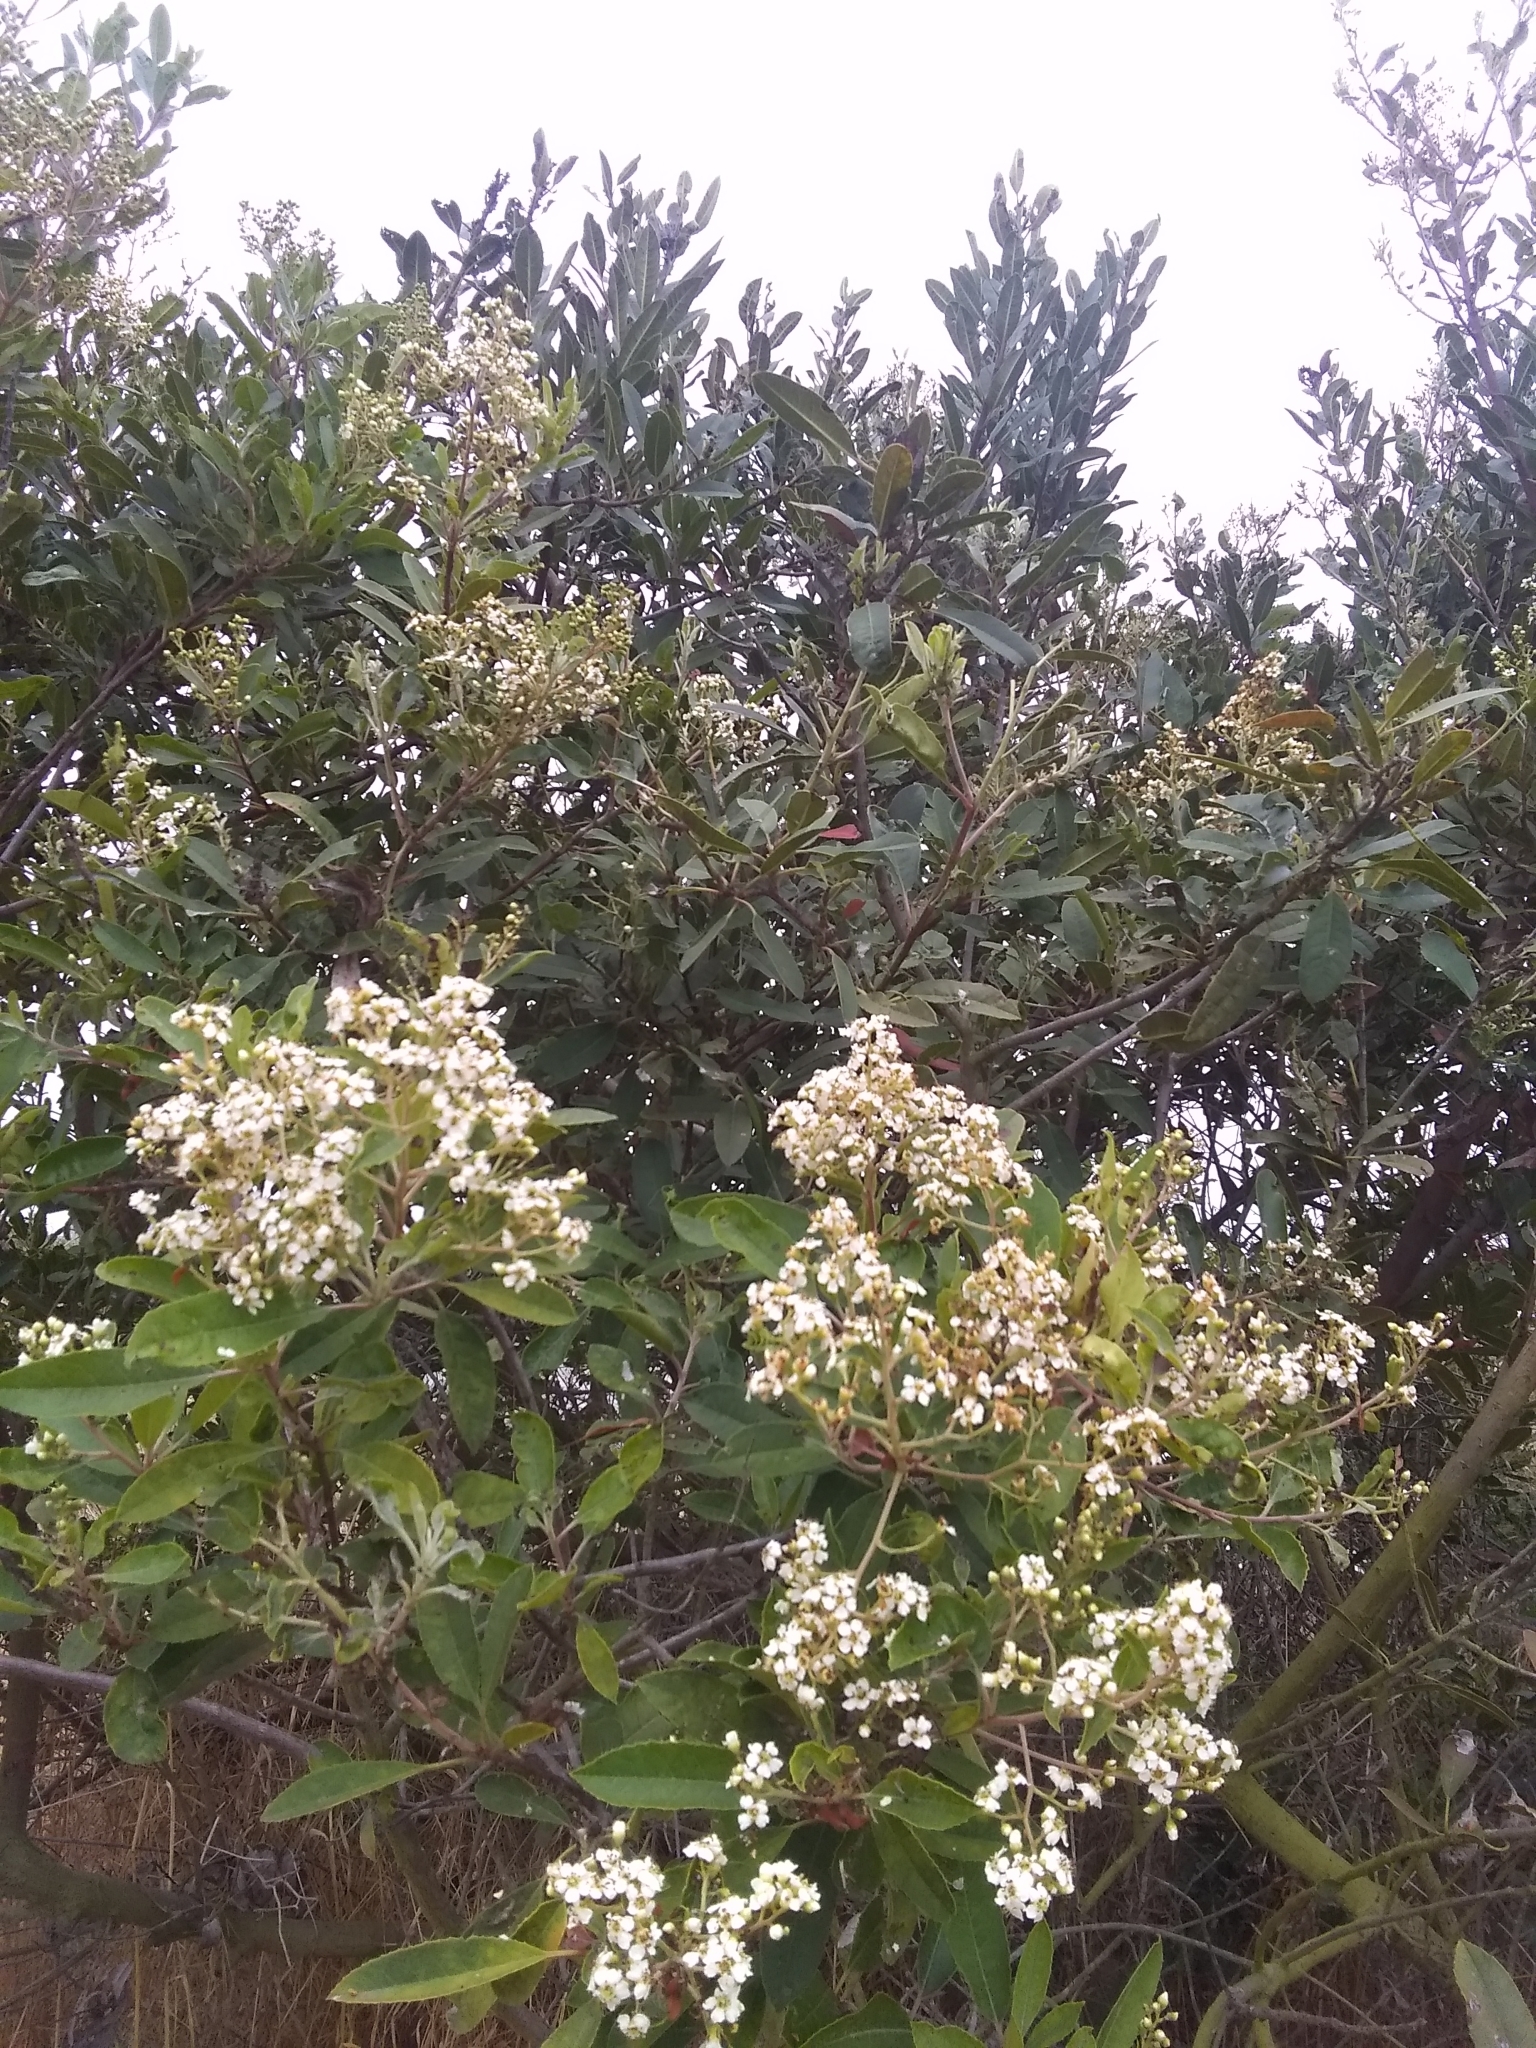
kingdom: Plantae
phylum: Tracheophyta
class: Magnoliopsida
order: Rosales
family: Rosaceae
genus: Heteromeles
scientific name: Heteromeles arbutifolia
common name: California-holly
